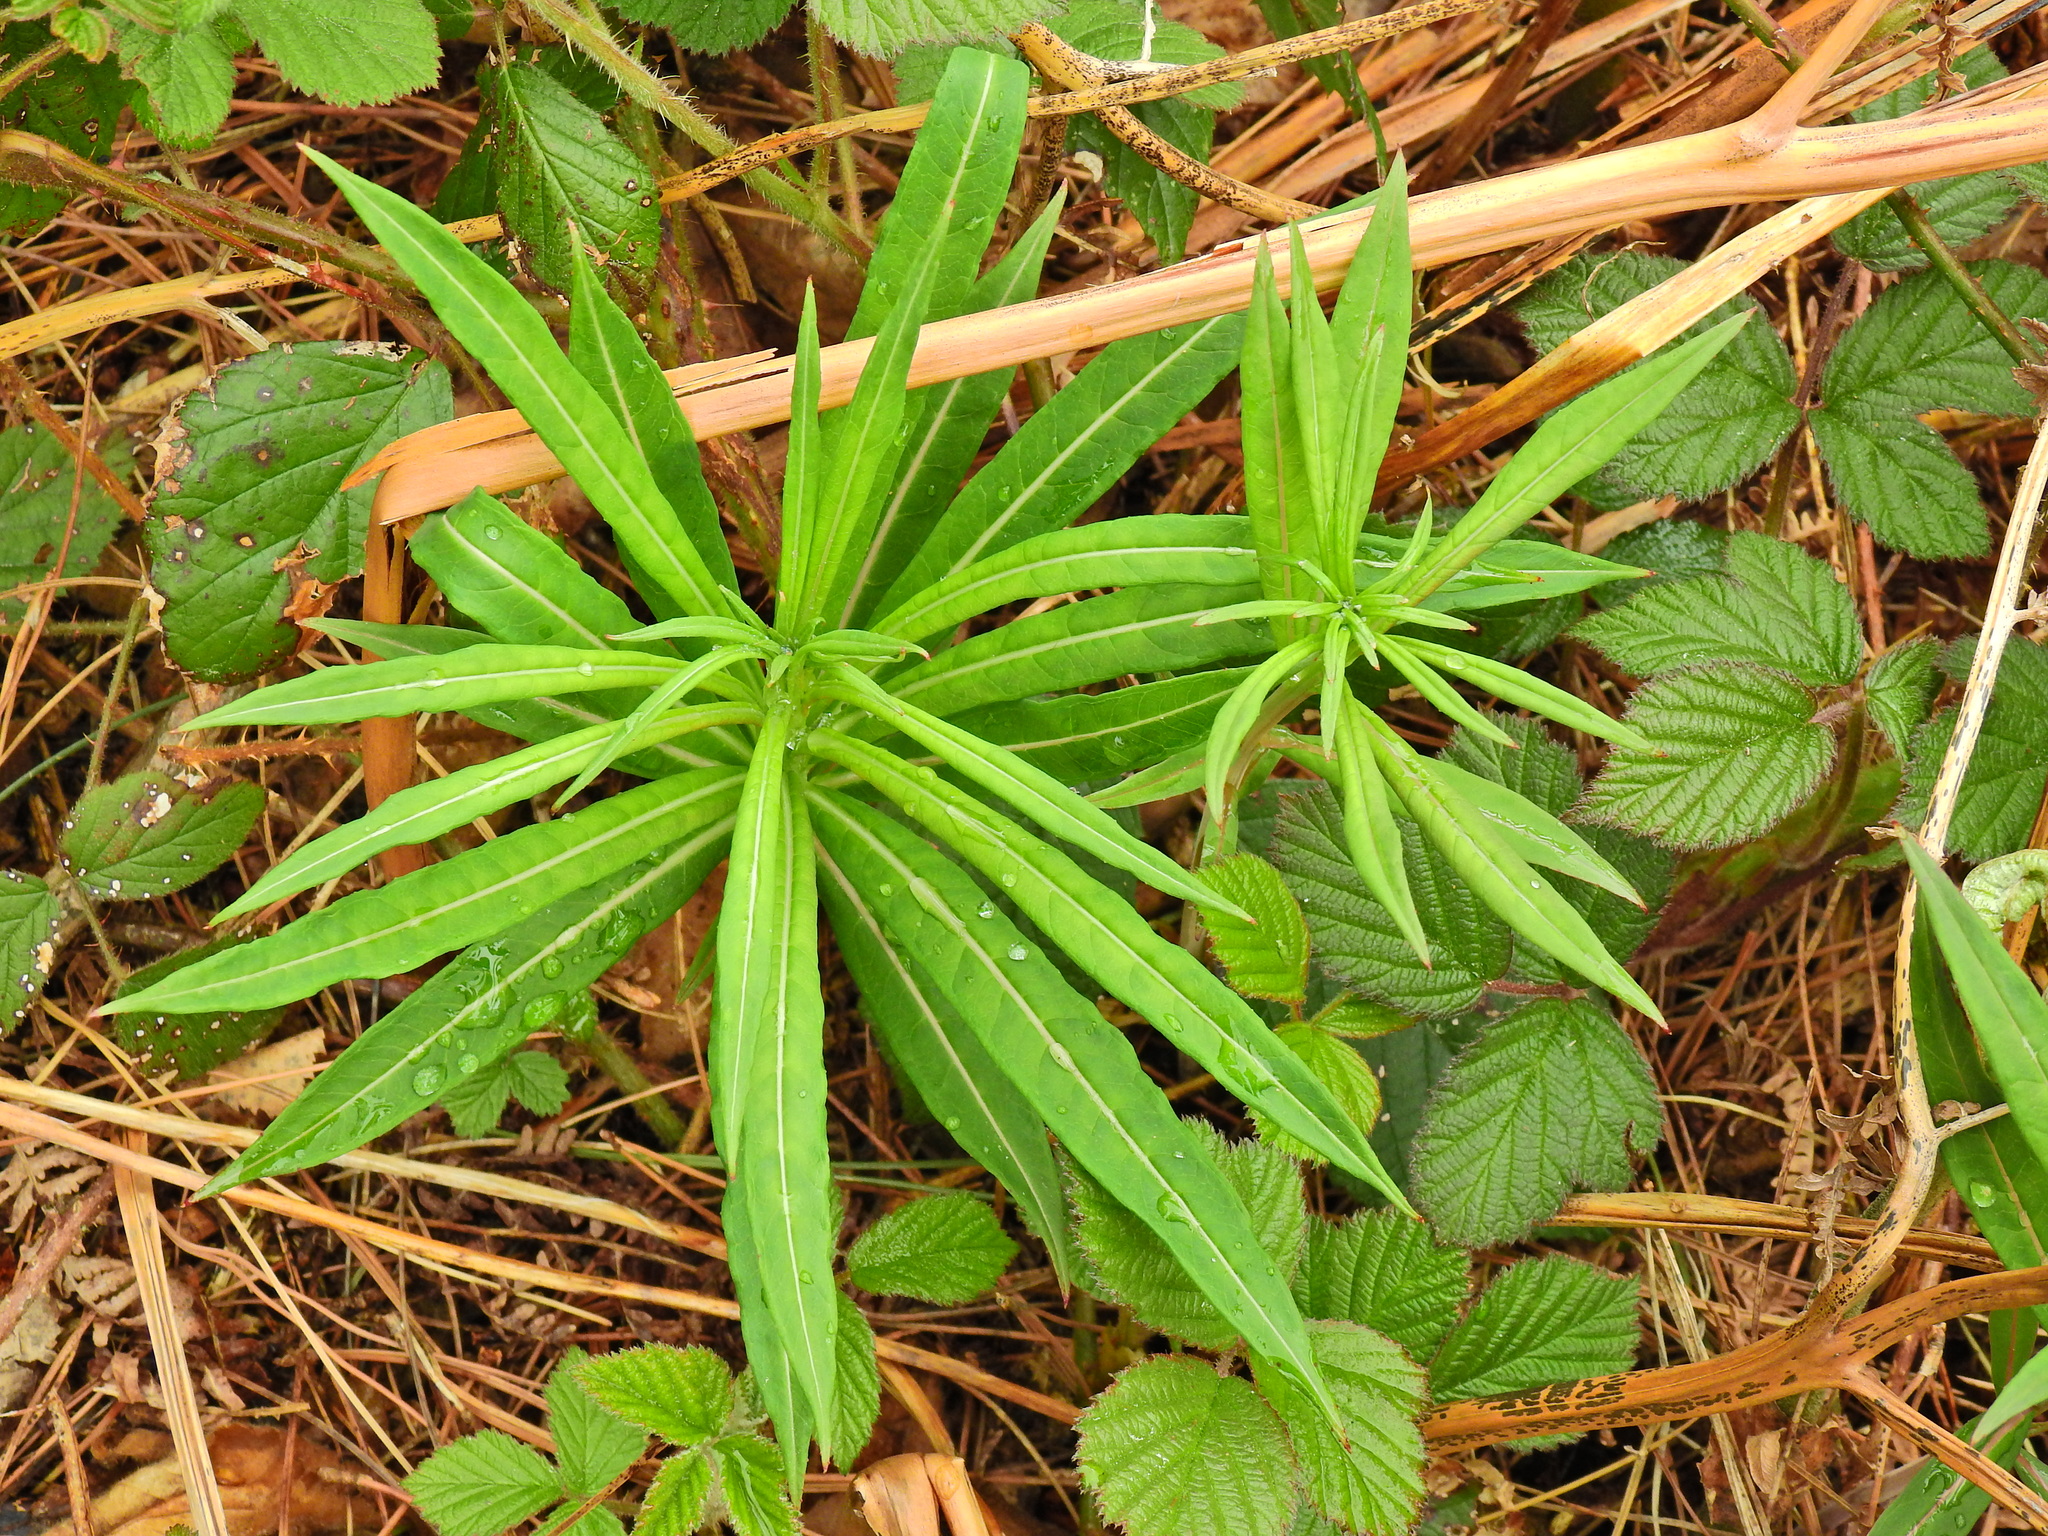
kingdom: Plantae
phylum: Tracheophyta
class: Magnoliopsida
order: Myrtales
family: Onagraceae
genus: Chamaenerion
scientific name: Chamaenerion angustifolium
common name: Fireweed
